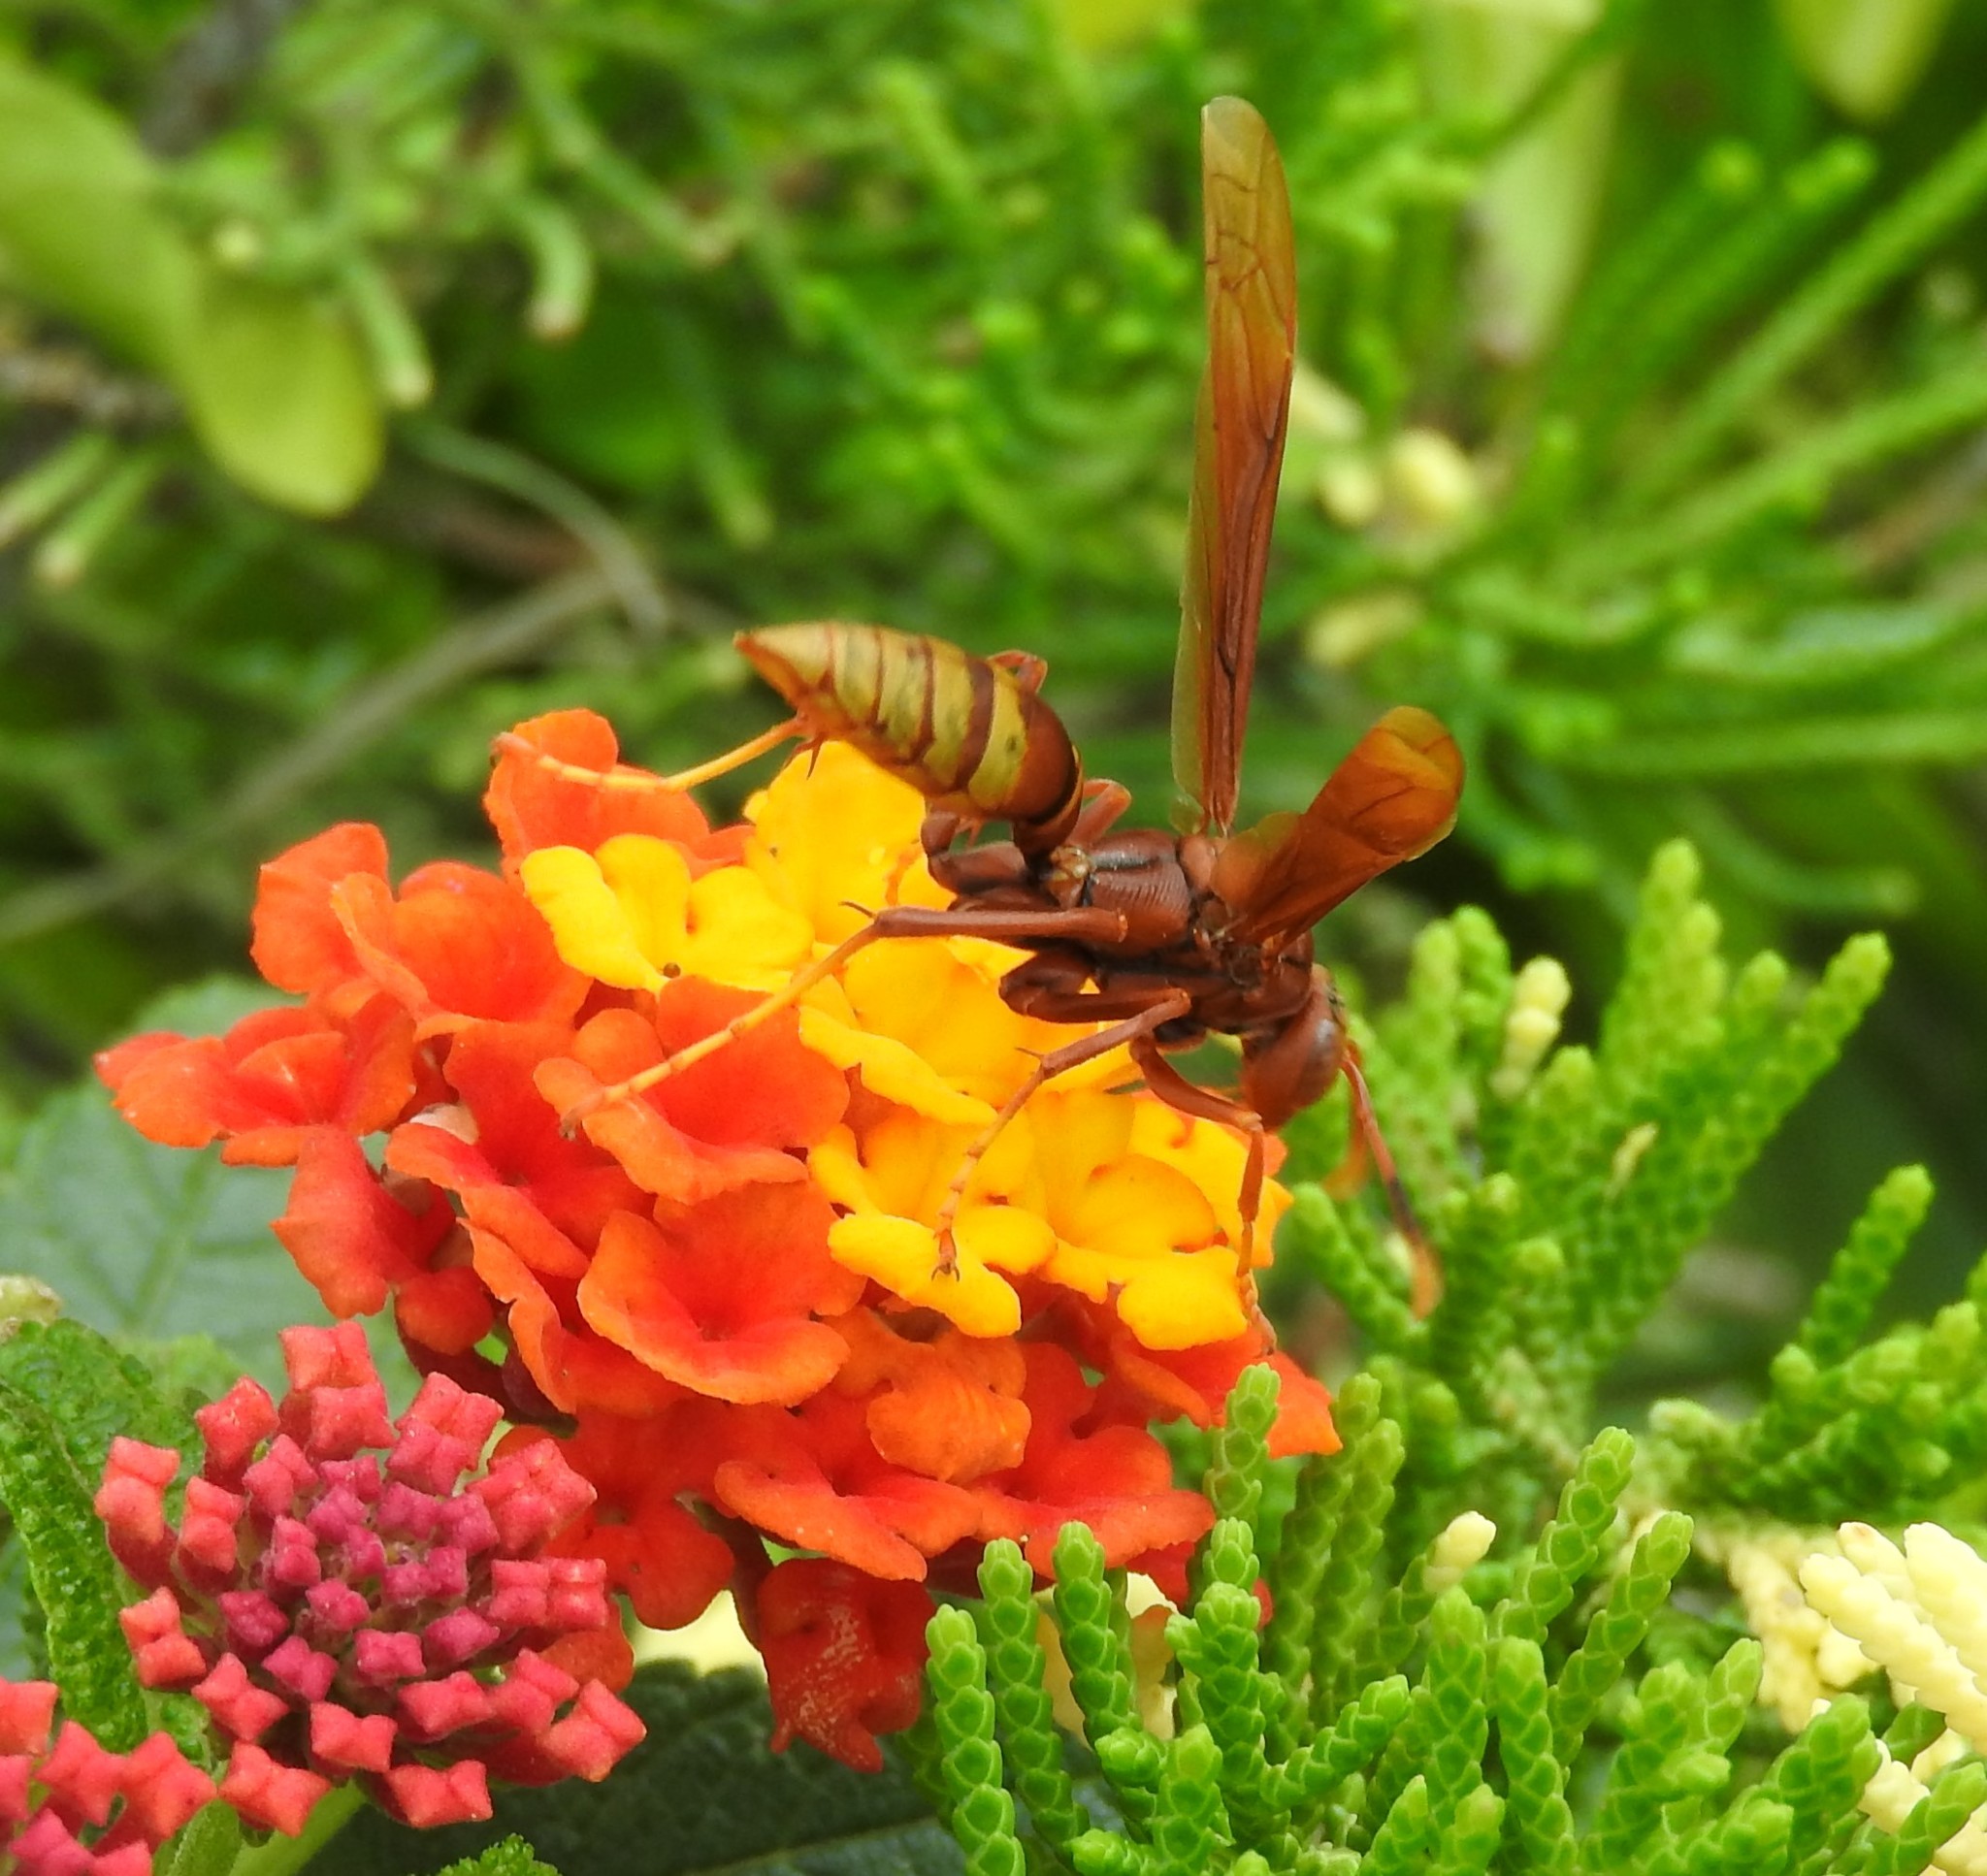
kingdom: Animalia
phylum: Arthropoda
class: Insecta
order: Hymenoptera
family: Eumenidae
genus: Polistes
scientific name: Polistes mexicanus
